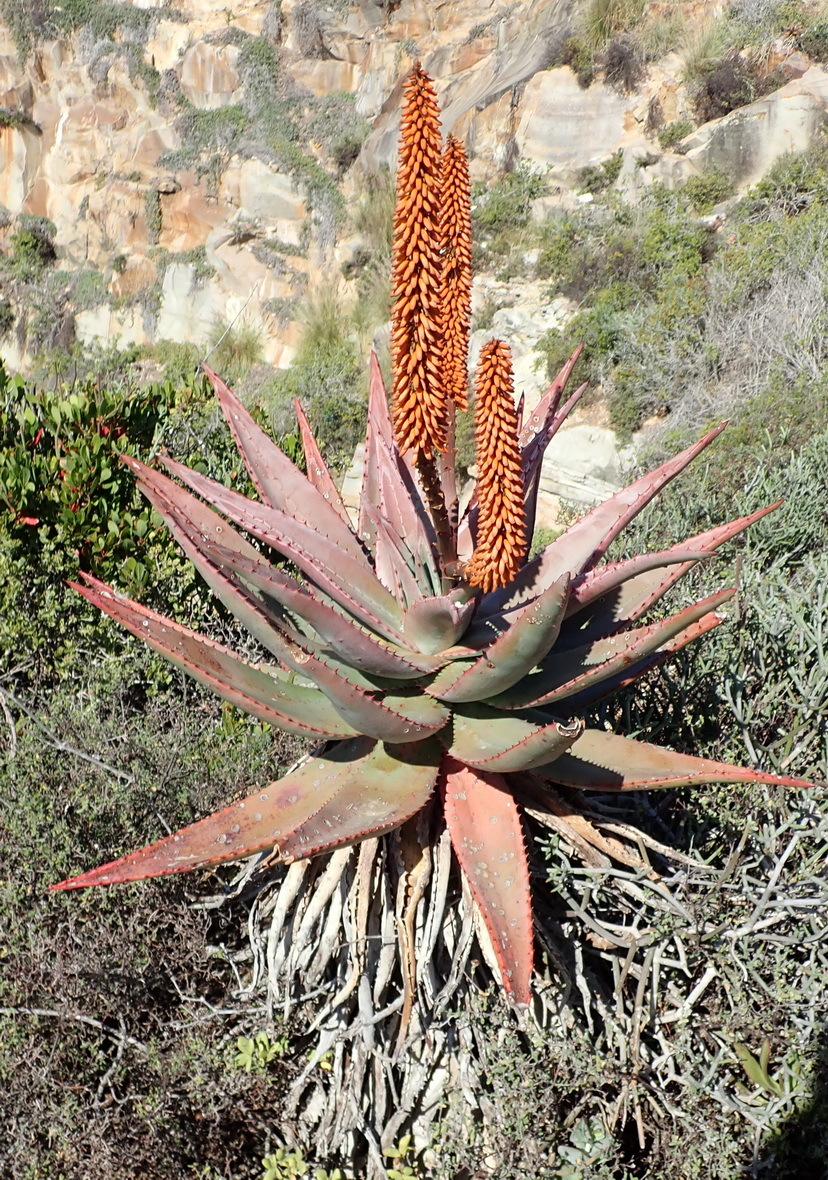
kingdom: Plantae
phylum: Tracheophyta
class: Liliopsida
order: Asparagales
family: Asphodelaceae
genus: Aloe
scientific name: Aloe ferox
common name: Bitter aloe
